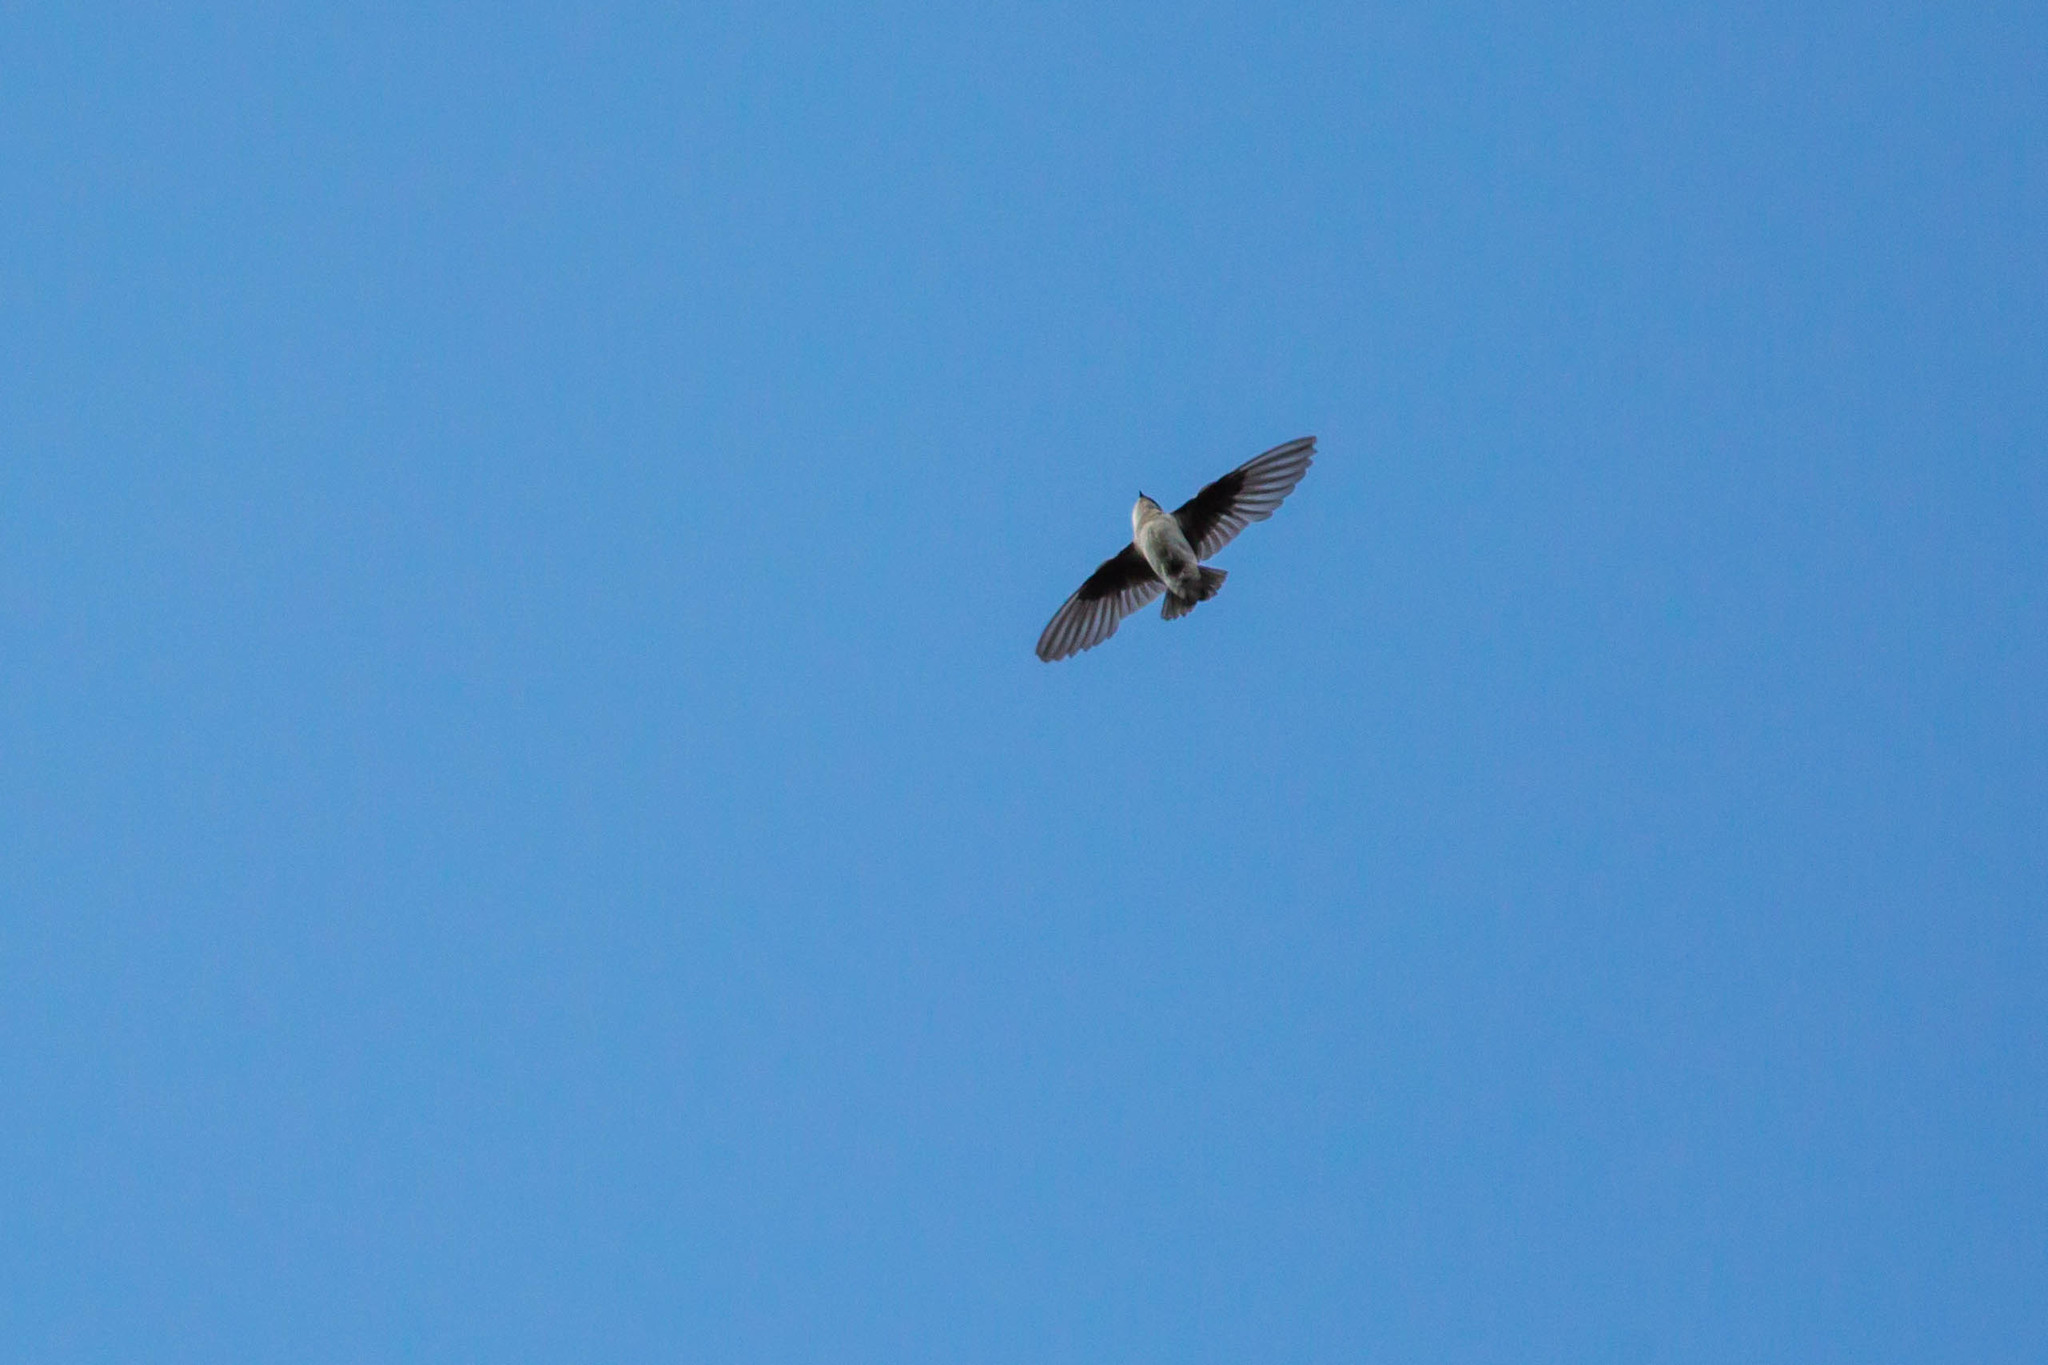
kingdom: Animalia
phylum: Chordata
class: Aves
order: Passeriformes
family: Hirundinidae
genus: Tachycineta
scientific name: Tachycineta thalassina
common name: Violet-green swallow
